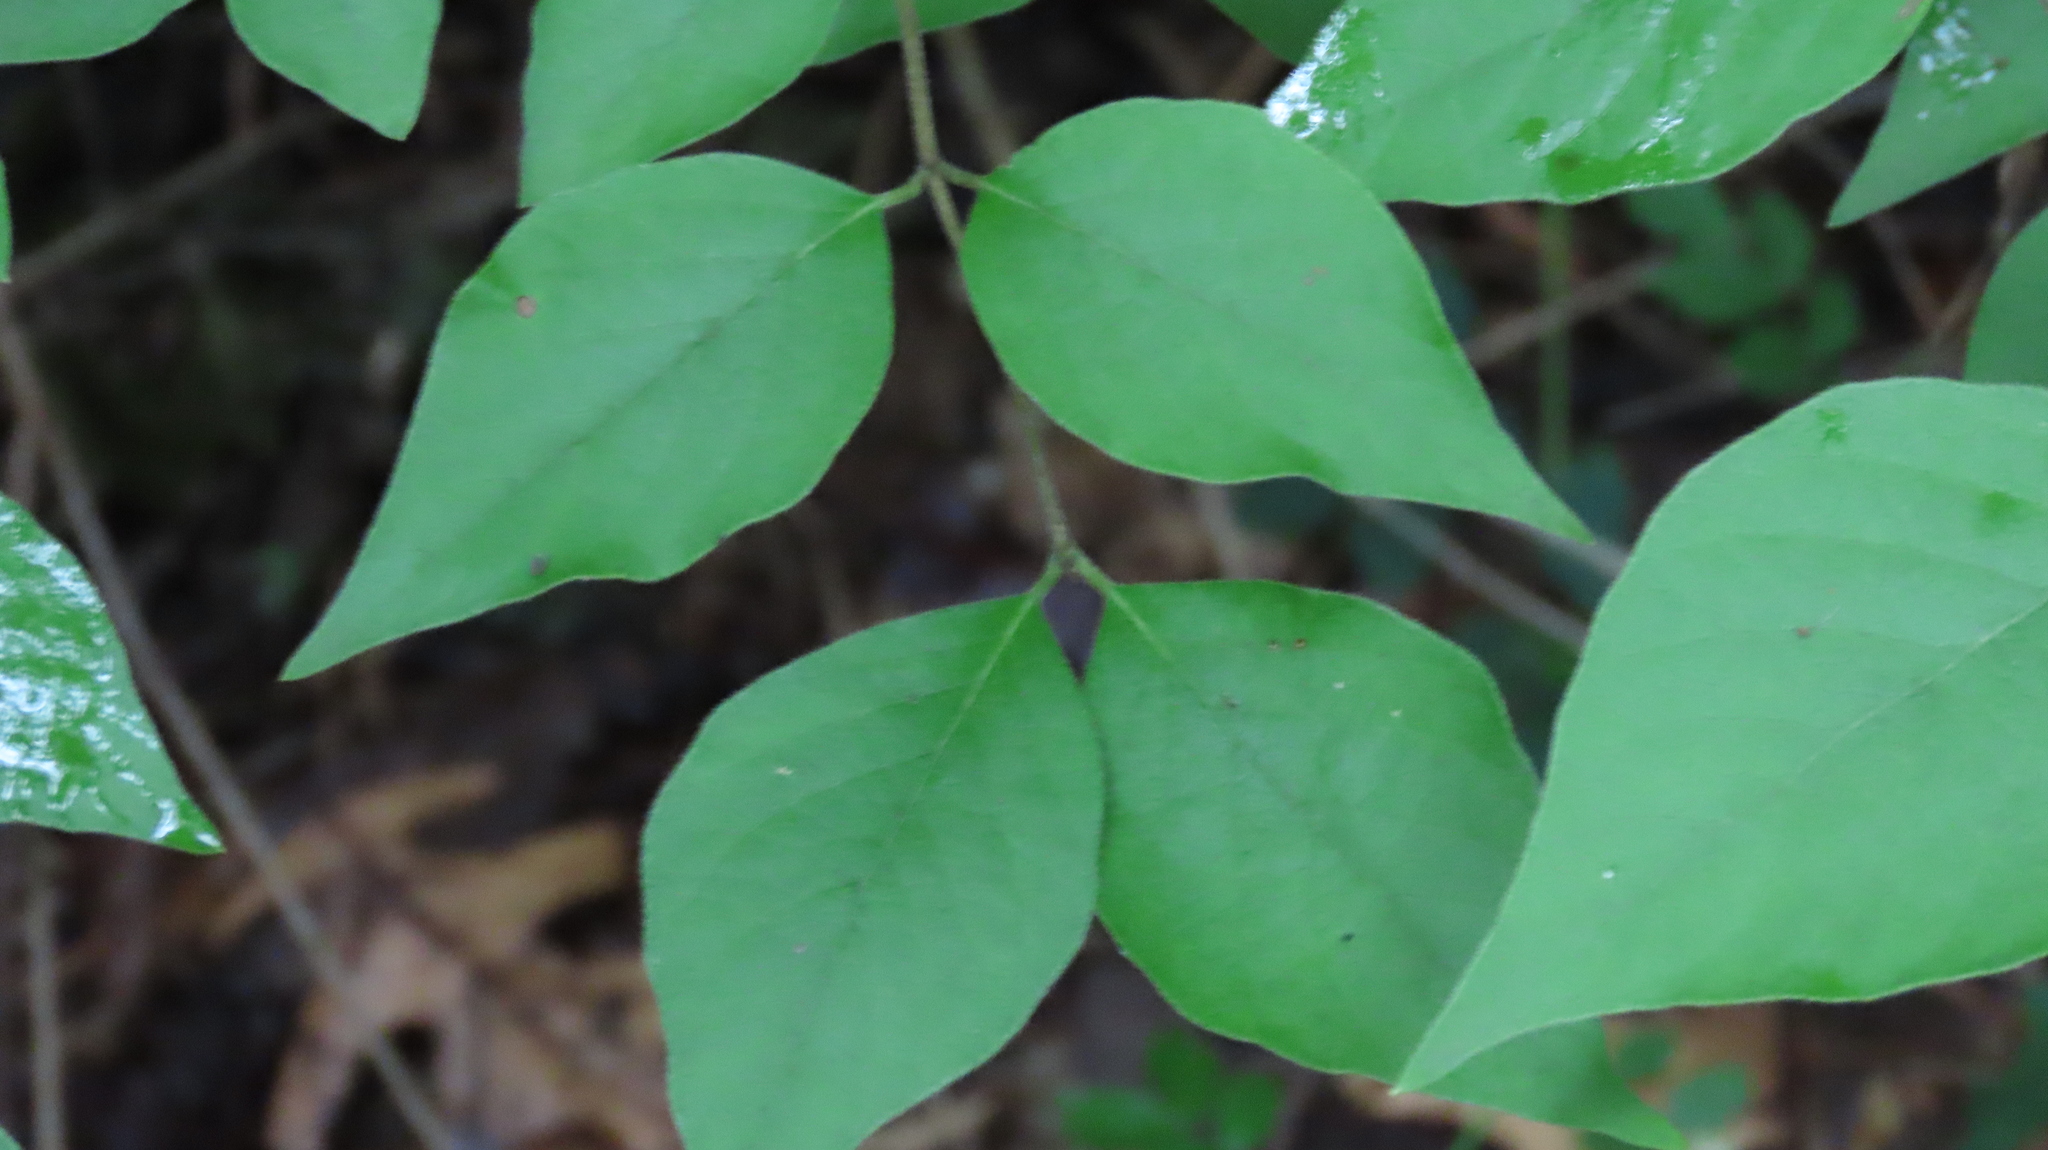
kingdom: Plantae
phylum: Tracheophyta
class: Magnoliopsida
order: Dipsacales
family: Caprifoliaceae
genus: Lonicera
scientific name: Lonicera maackii
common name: Amur honeysuckle
